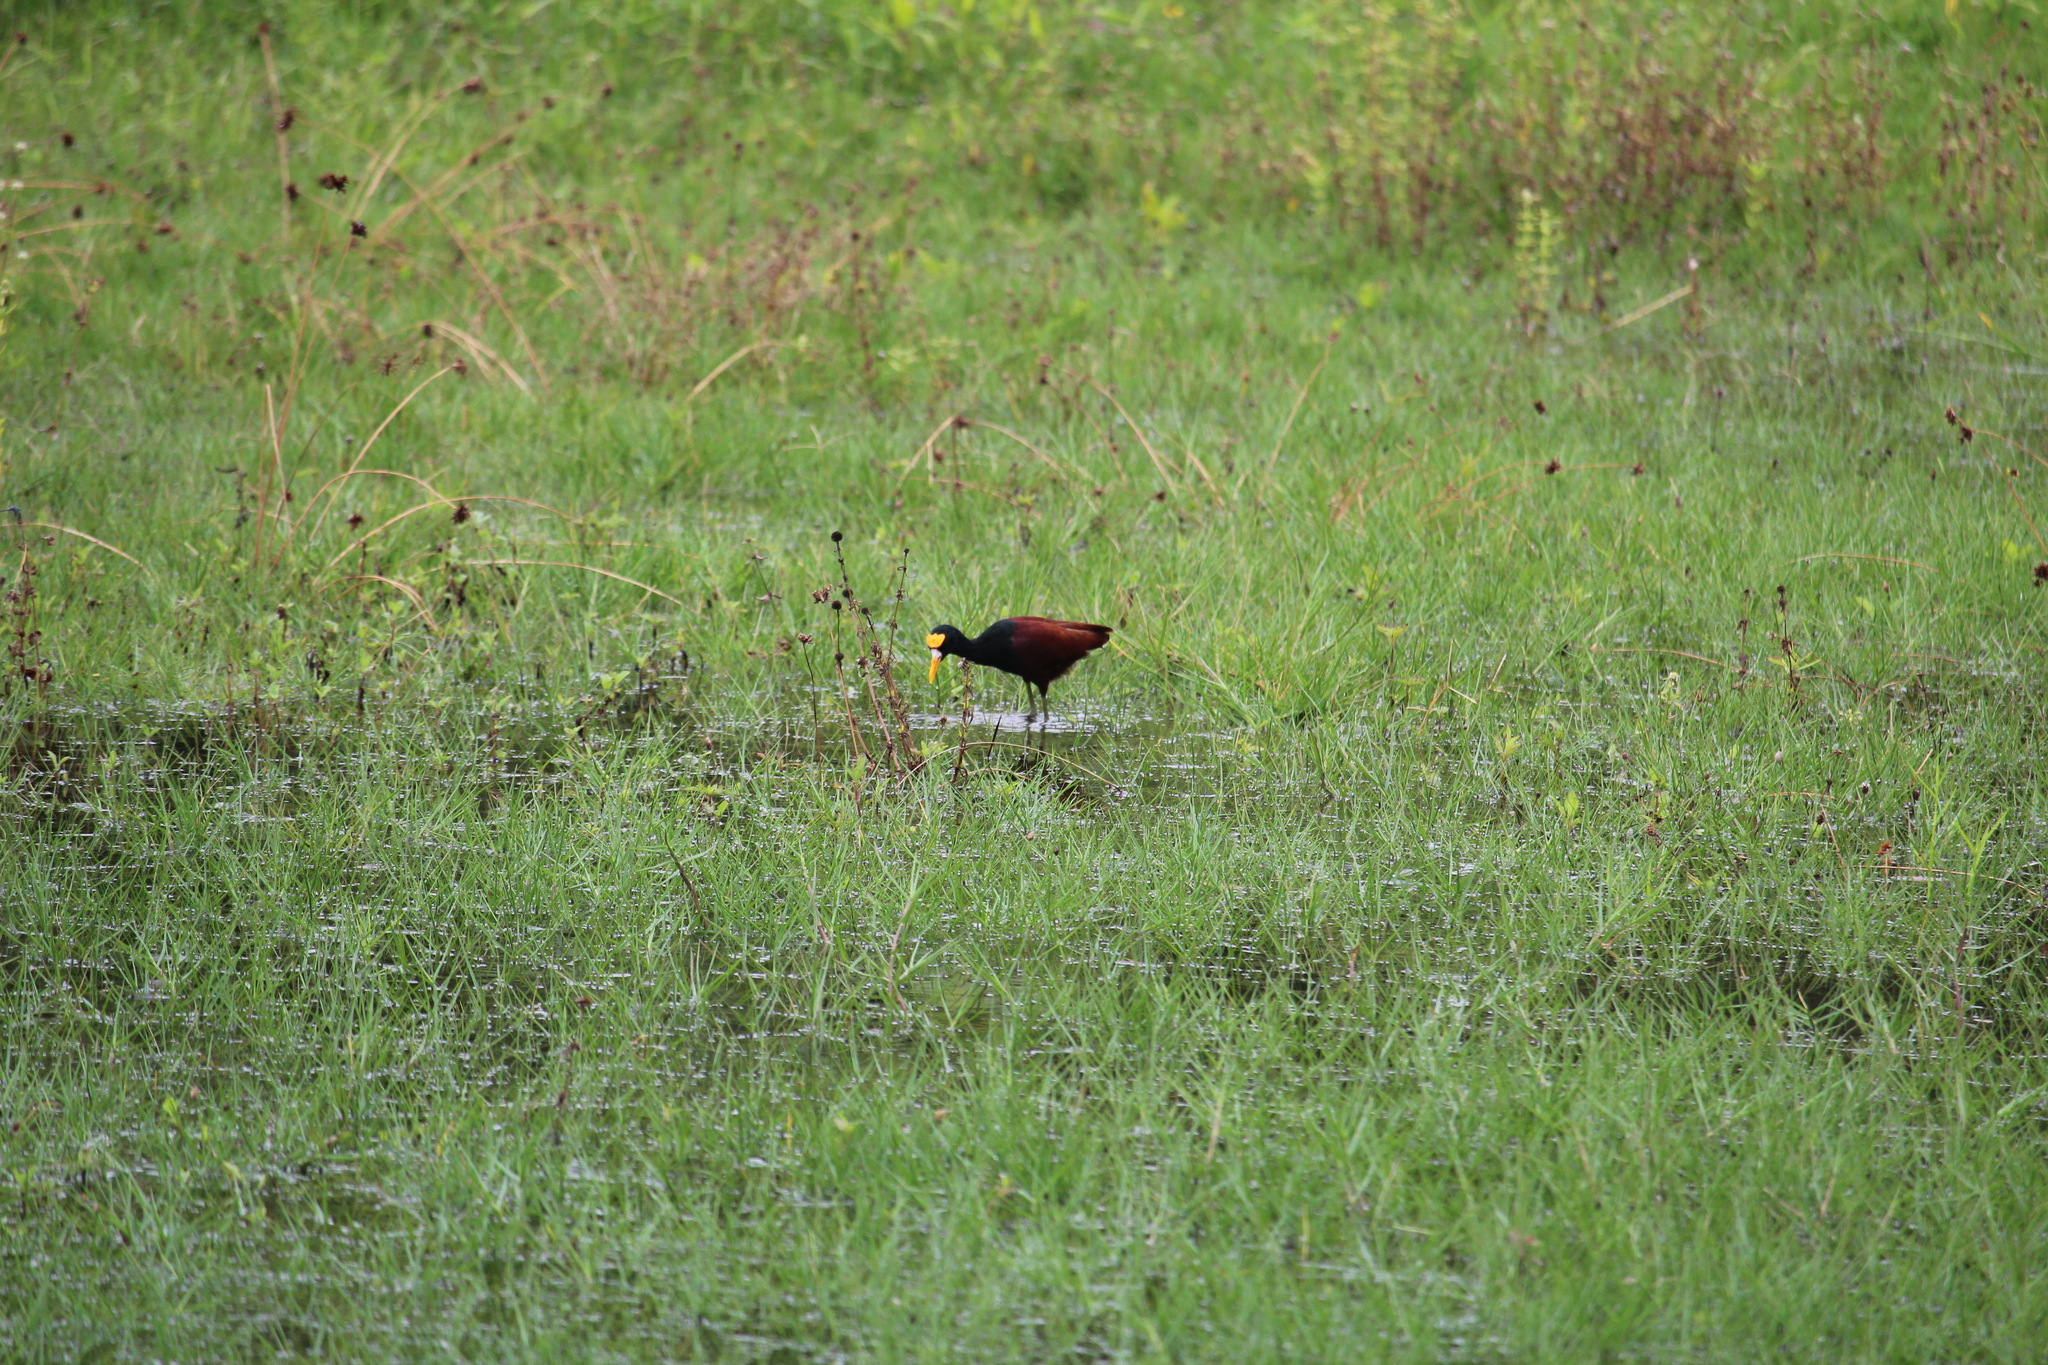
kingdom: Animalia
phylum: Chordata
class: Aves
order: Charadriiformes
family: Jacanidae
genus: Jacana
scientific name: Jacana spinosa
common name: Northern jacana
